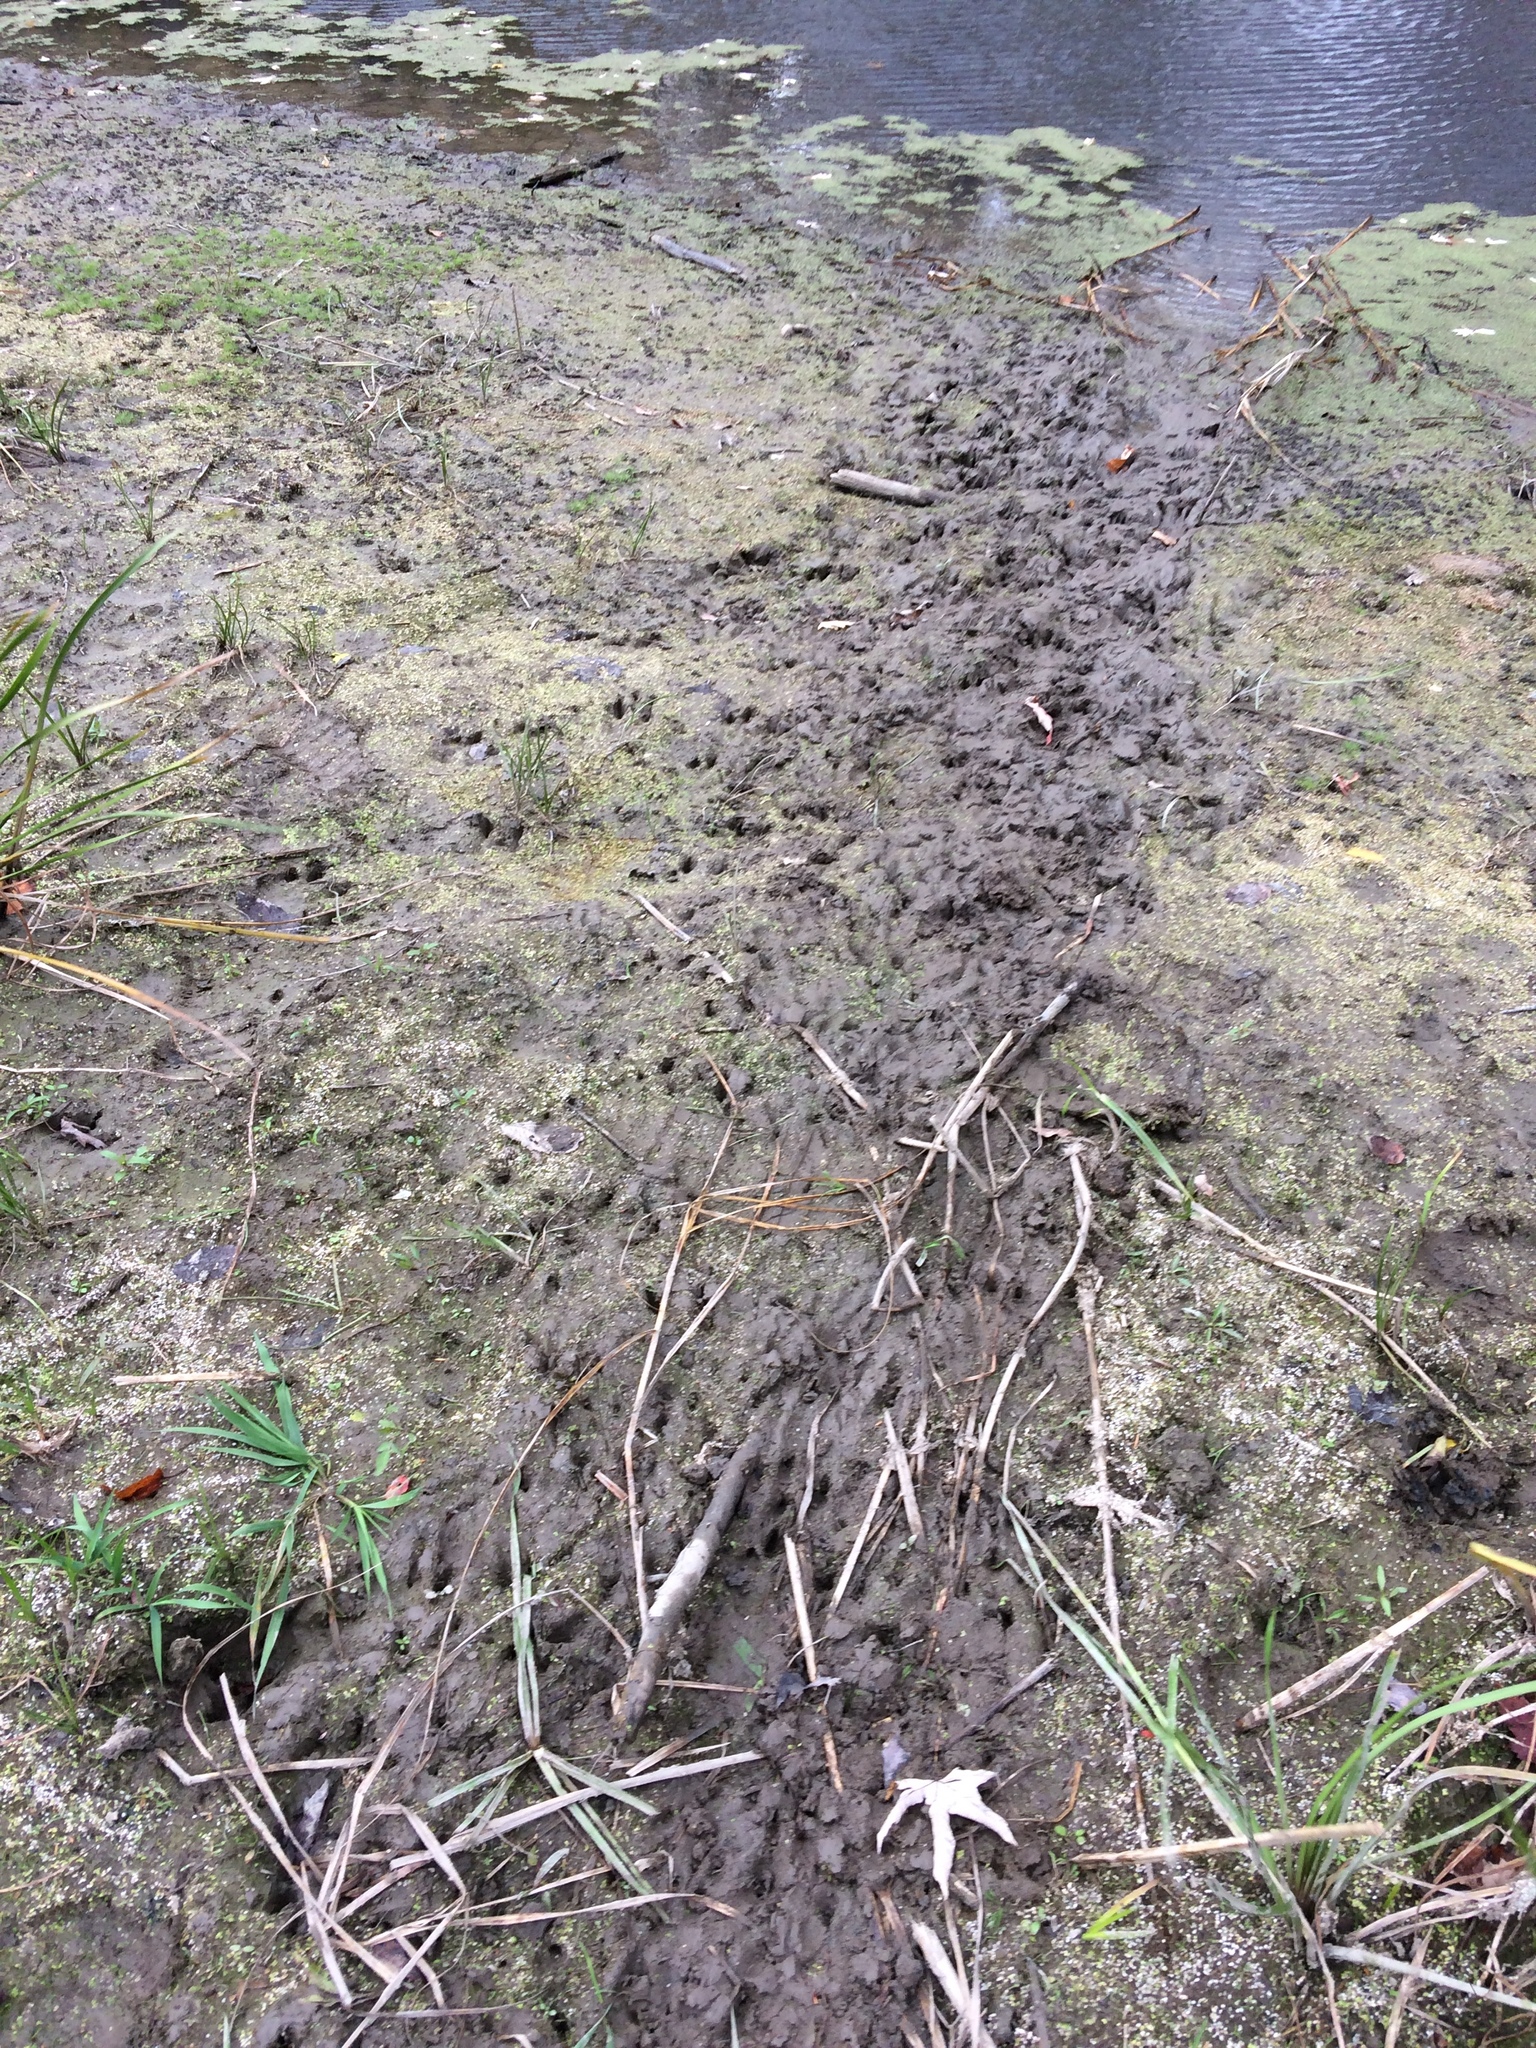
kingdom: Animalia
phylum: Chordata
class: Mammalia
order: Rodentia
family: Castoridae
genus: Castor
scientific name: Castor canadensis
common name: American beaver
